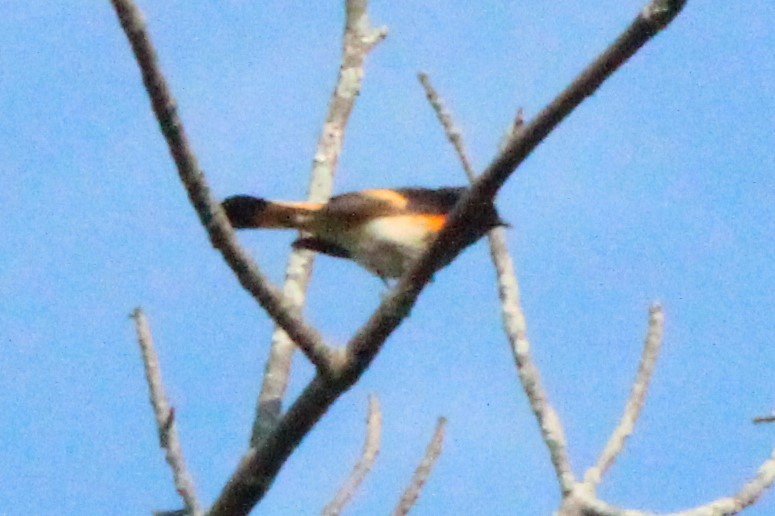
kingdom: Animalia
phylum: Chordata
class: Aves
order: Passeriformes
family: Parulidae
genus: Setophaga
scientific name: Setophaga ruticilla
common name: American redstart
